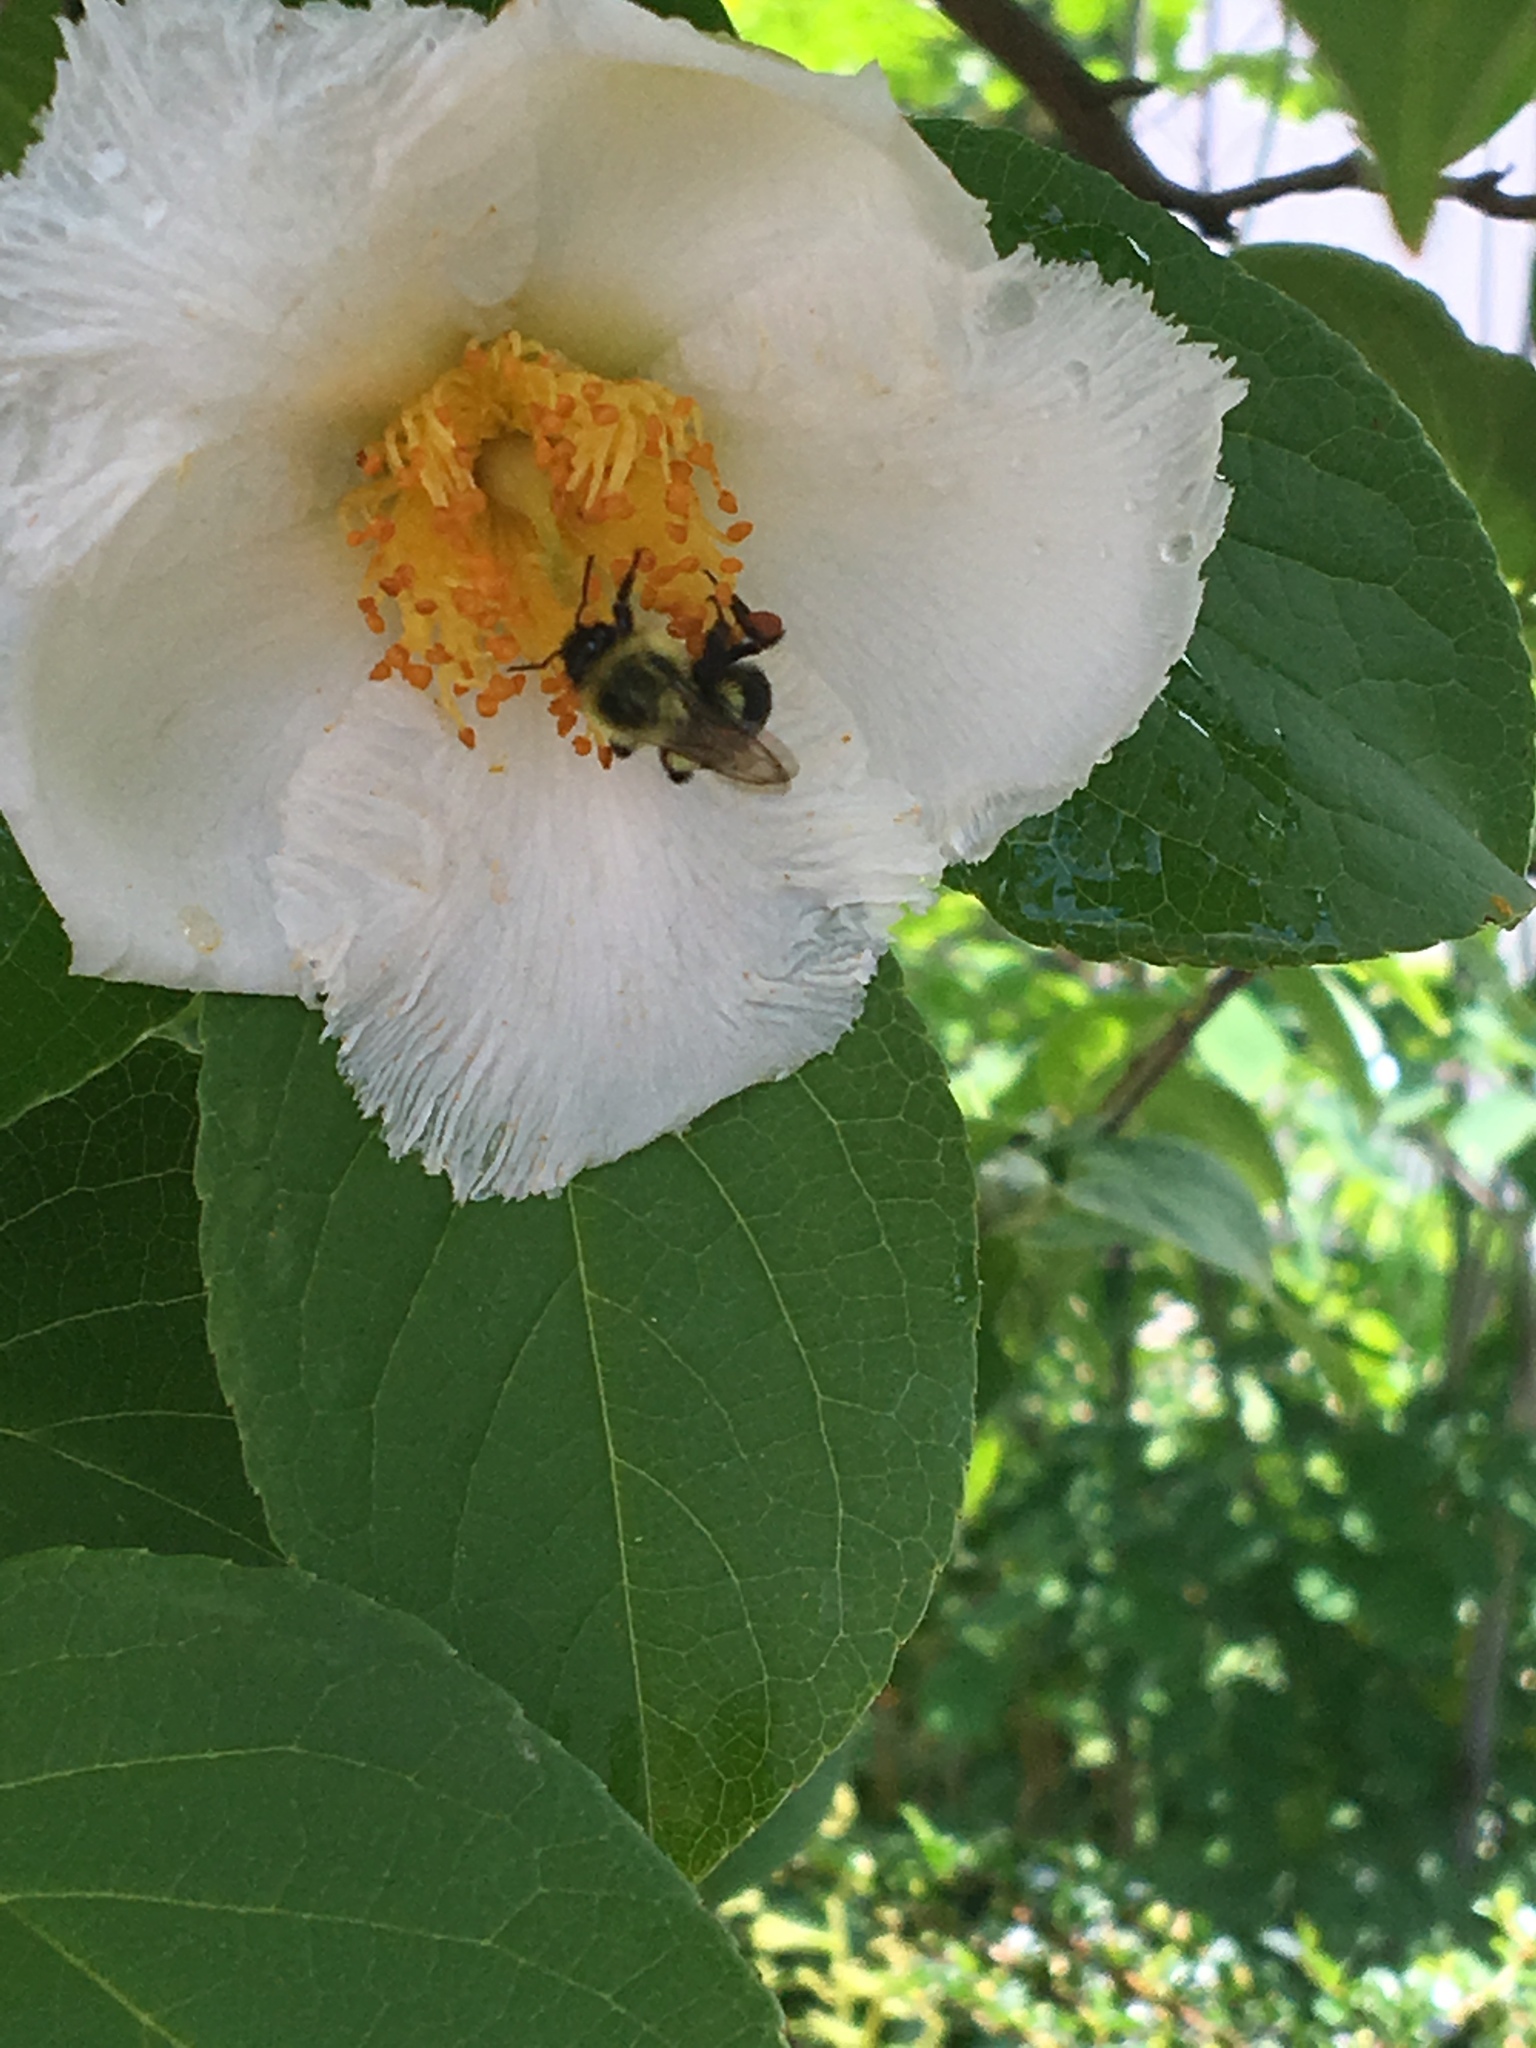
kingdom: Animalia
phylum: Arthropoda
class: Insecta
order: Hymenoptera
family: Apidae
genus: Bombus
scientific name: Bombus impatiens
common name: Common eastern bumble bee
